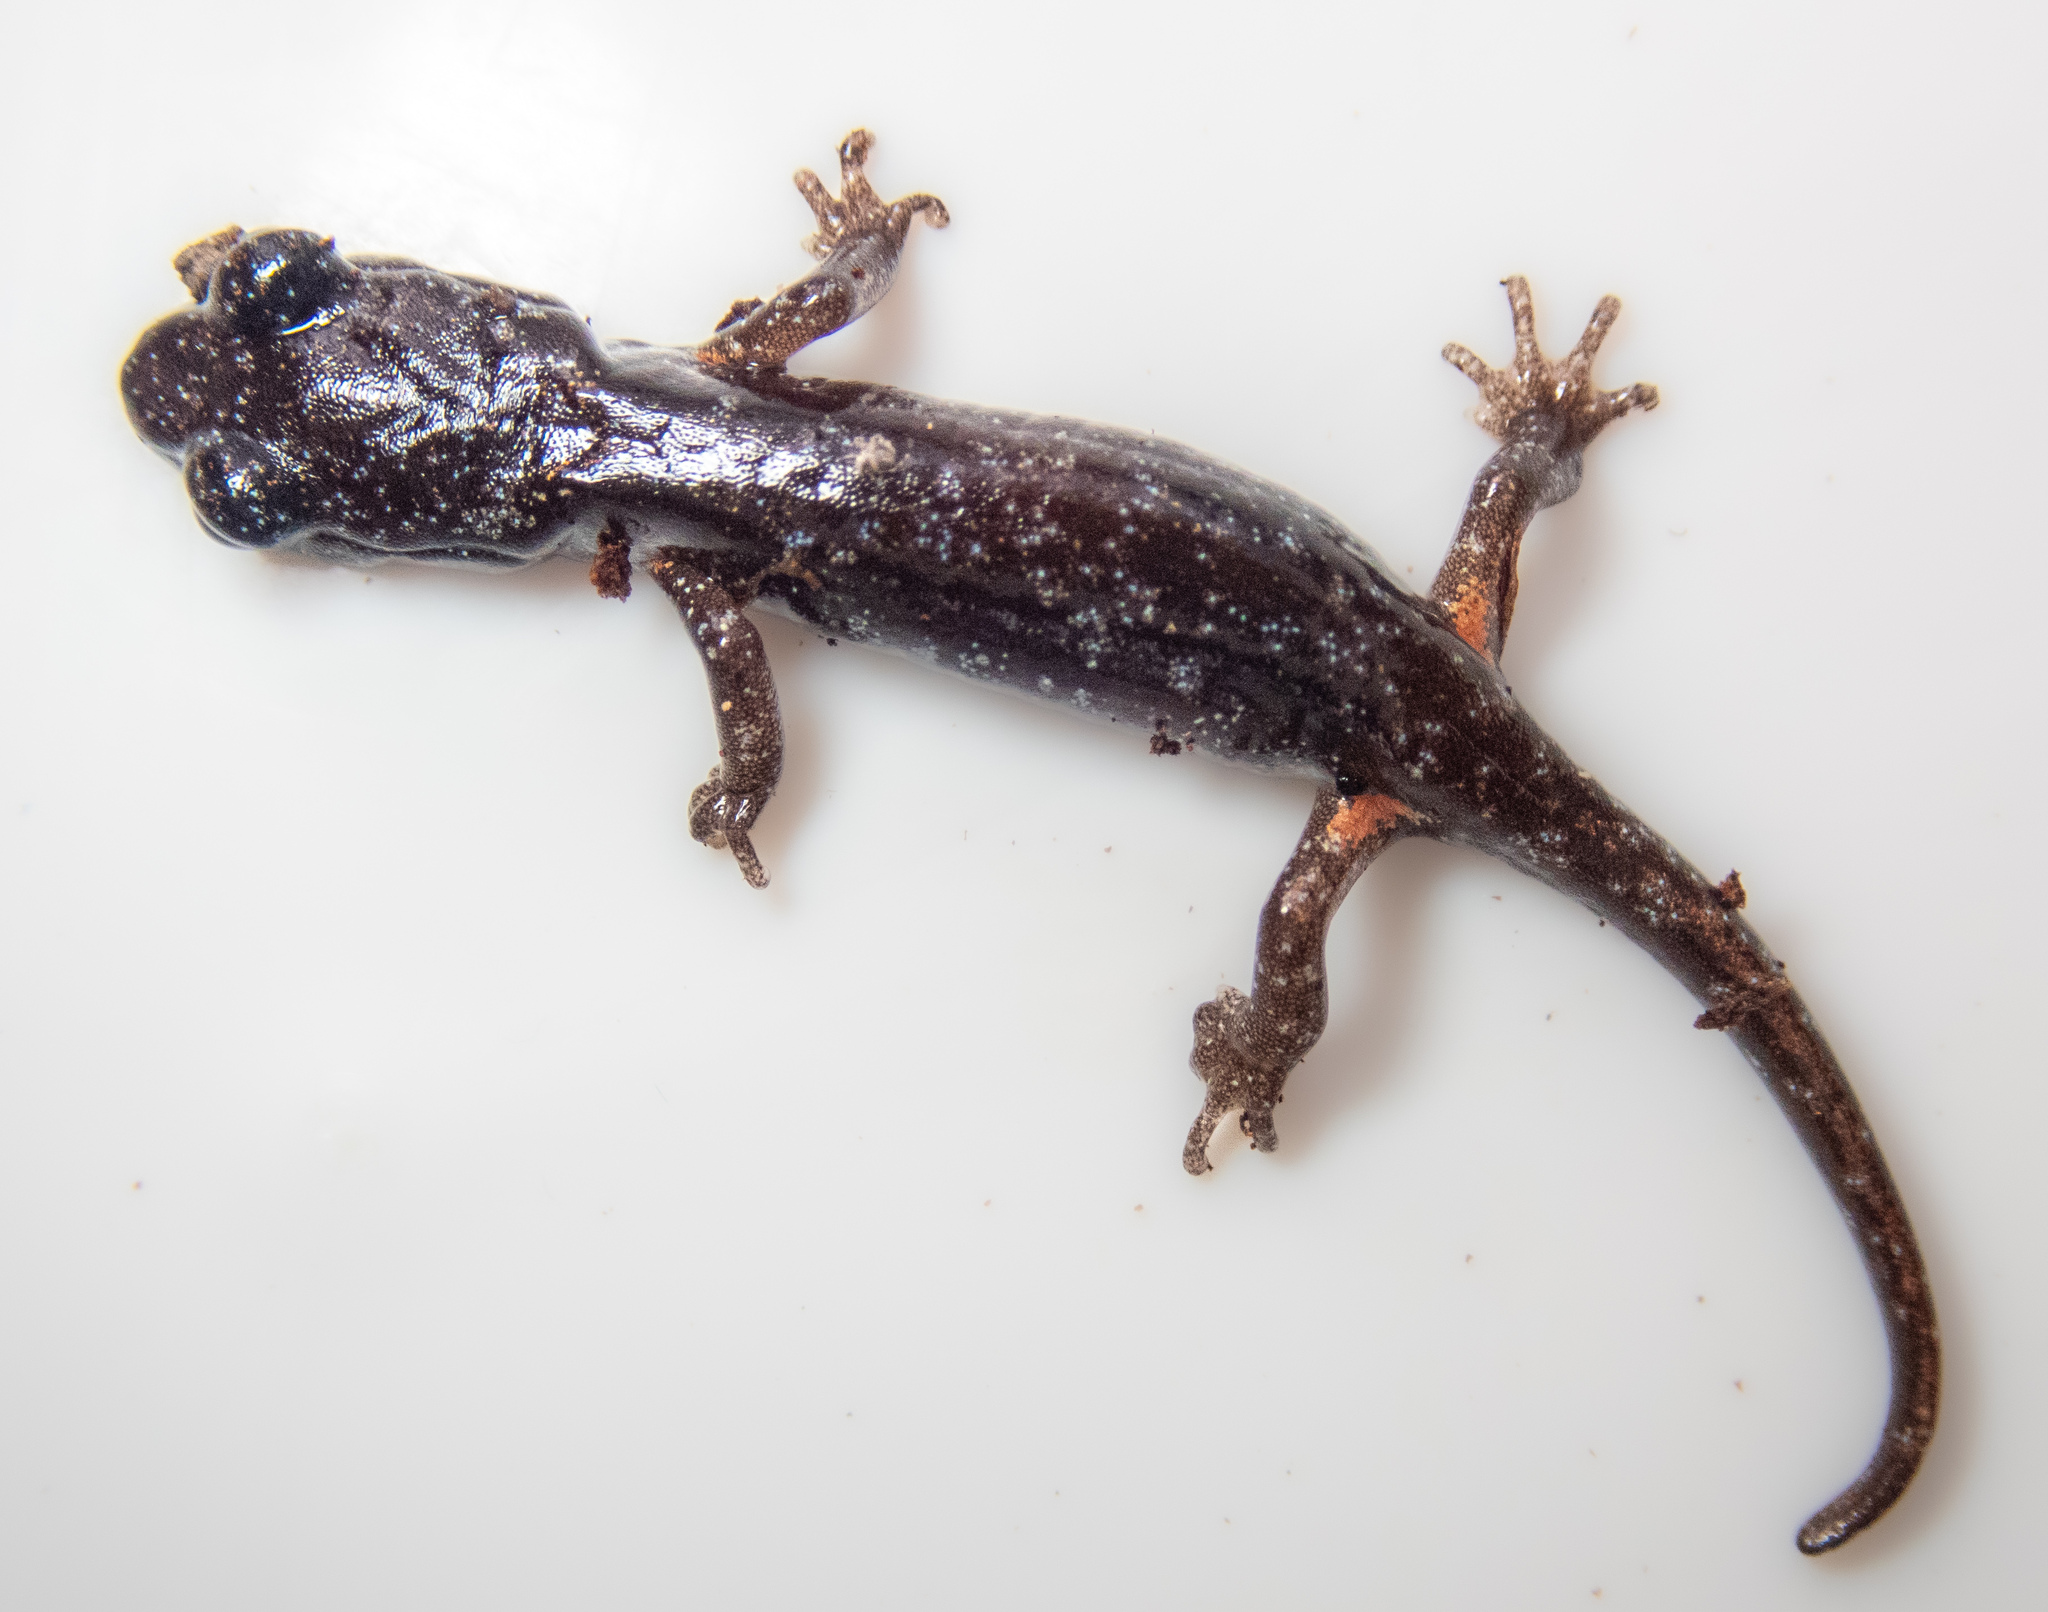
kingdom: Animalia
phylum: Chordata
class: Amphibia
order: Caudata
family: Plethodontidae
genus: Aneides
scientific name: Aneides lugubris
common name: Arboreal salamander
